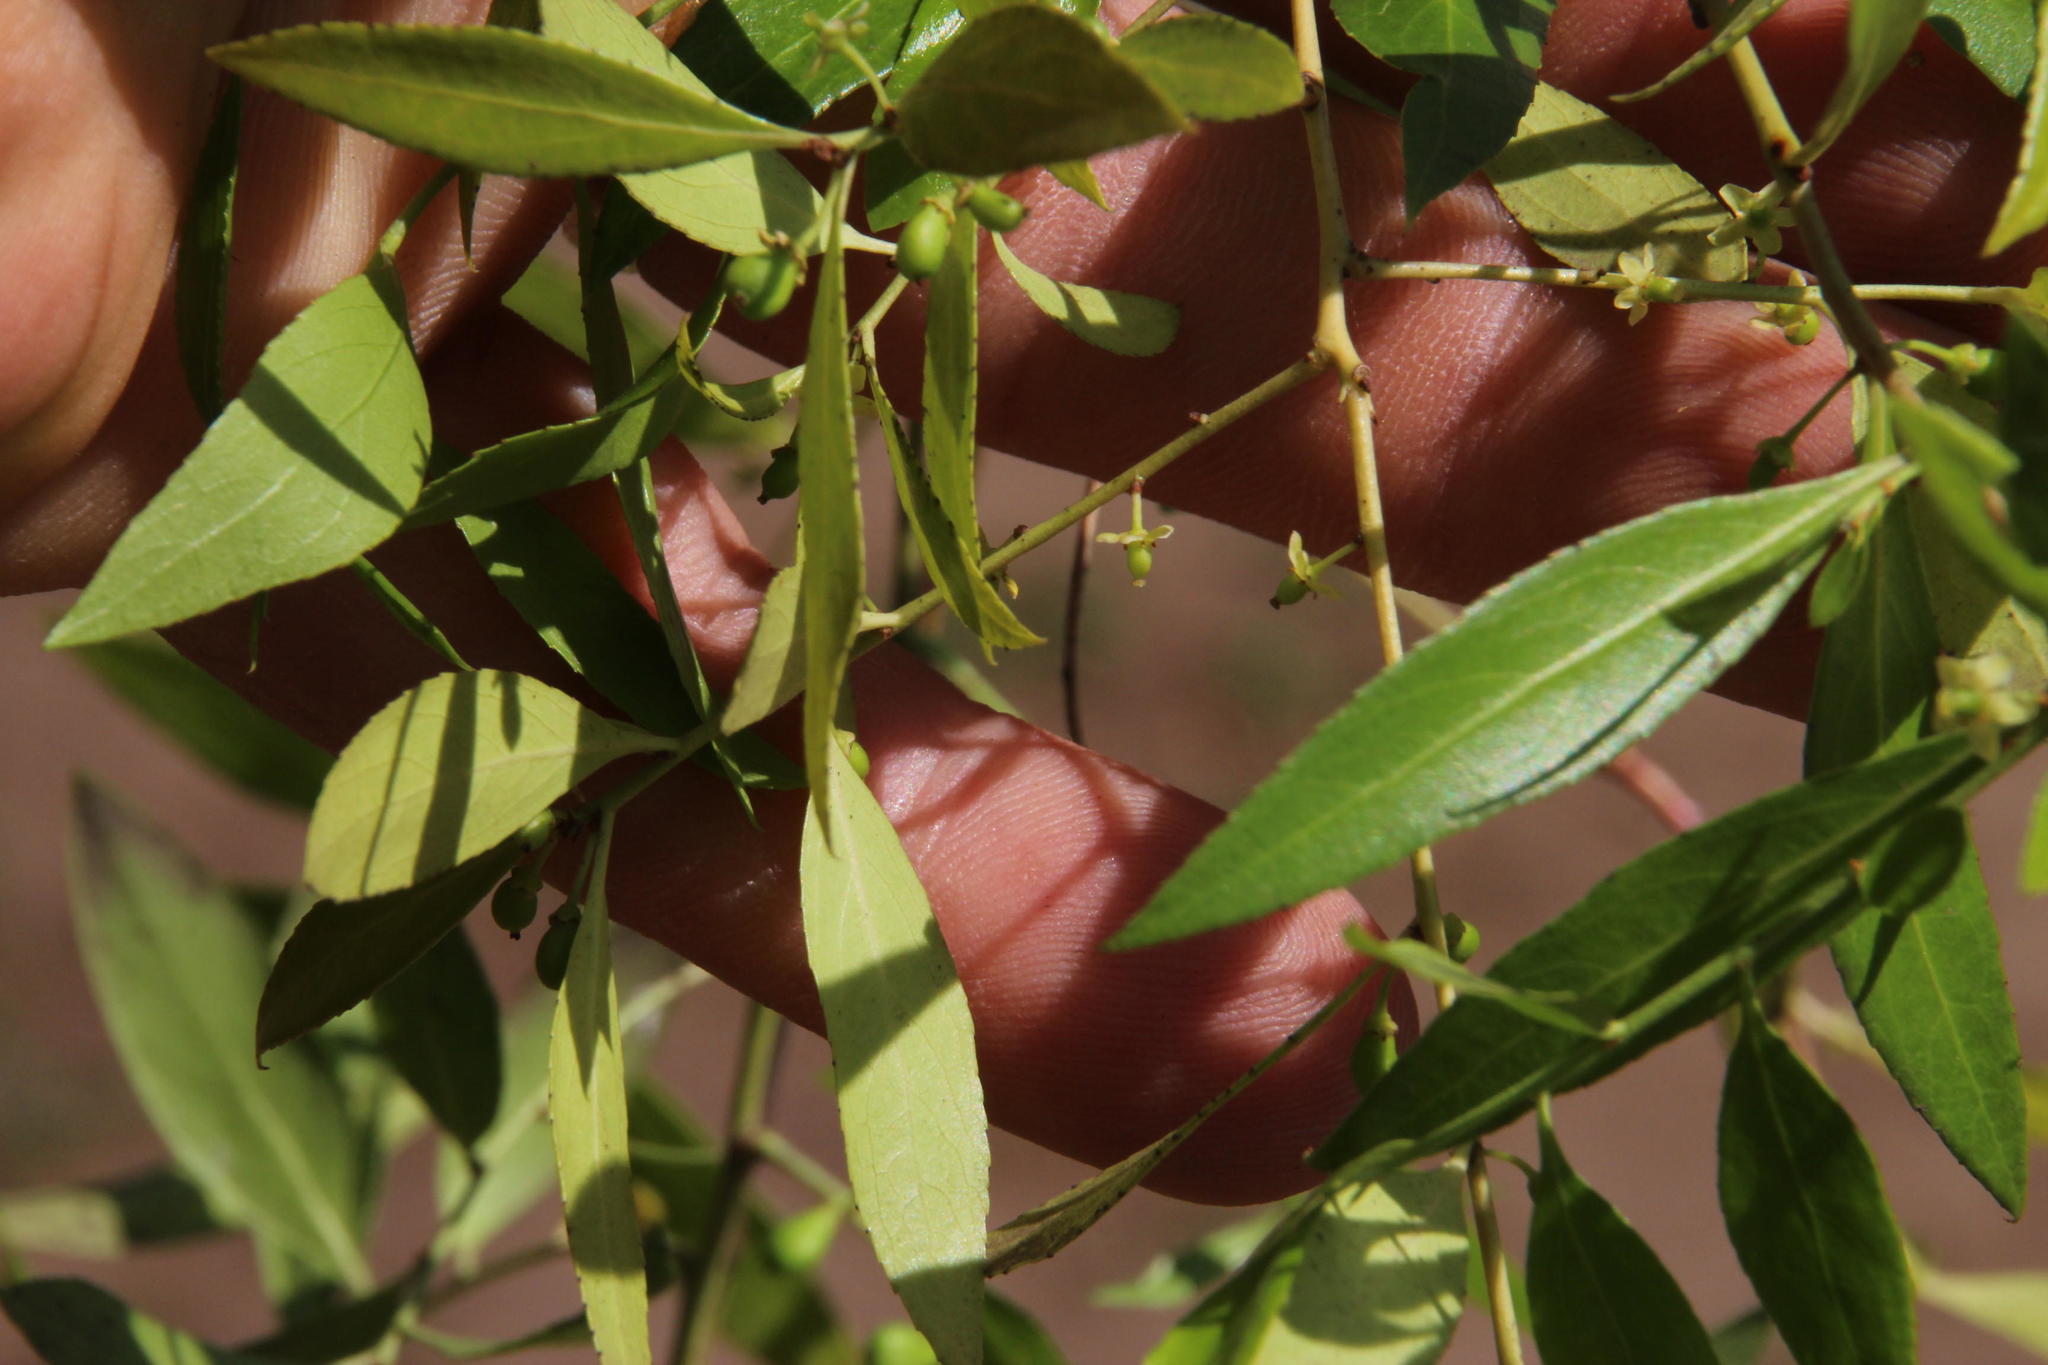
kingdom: Plantae
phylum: Tracheophyta
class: Magnoliopsida
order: Celastrales
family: Celastraceae
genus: Maytenus
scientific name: Maytenus boaria
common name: Mayten
